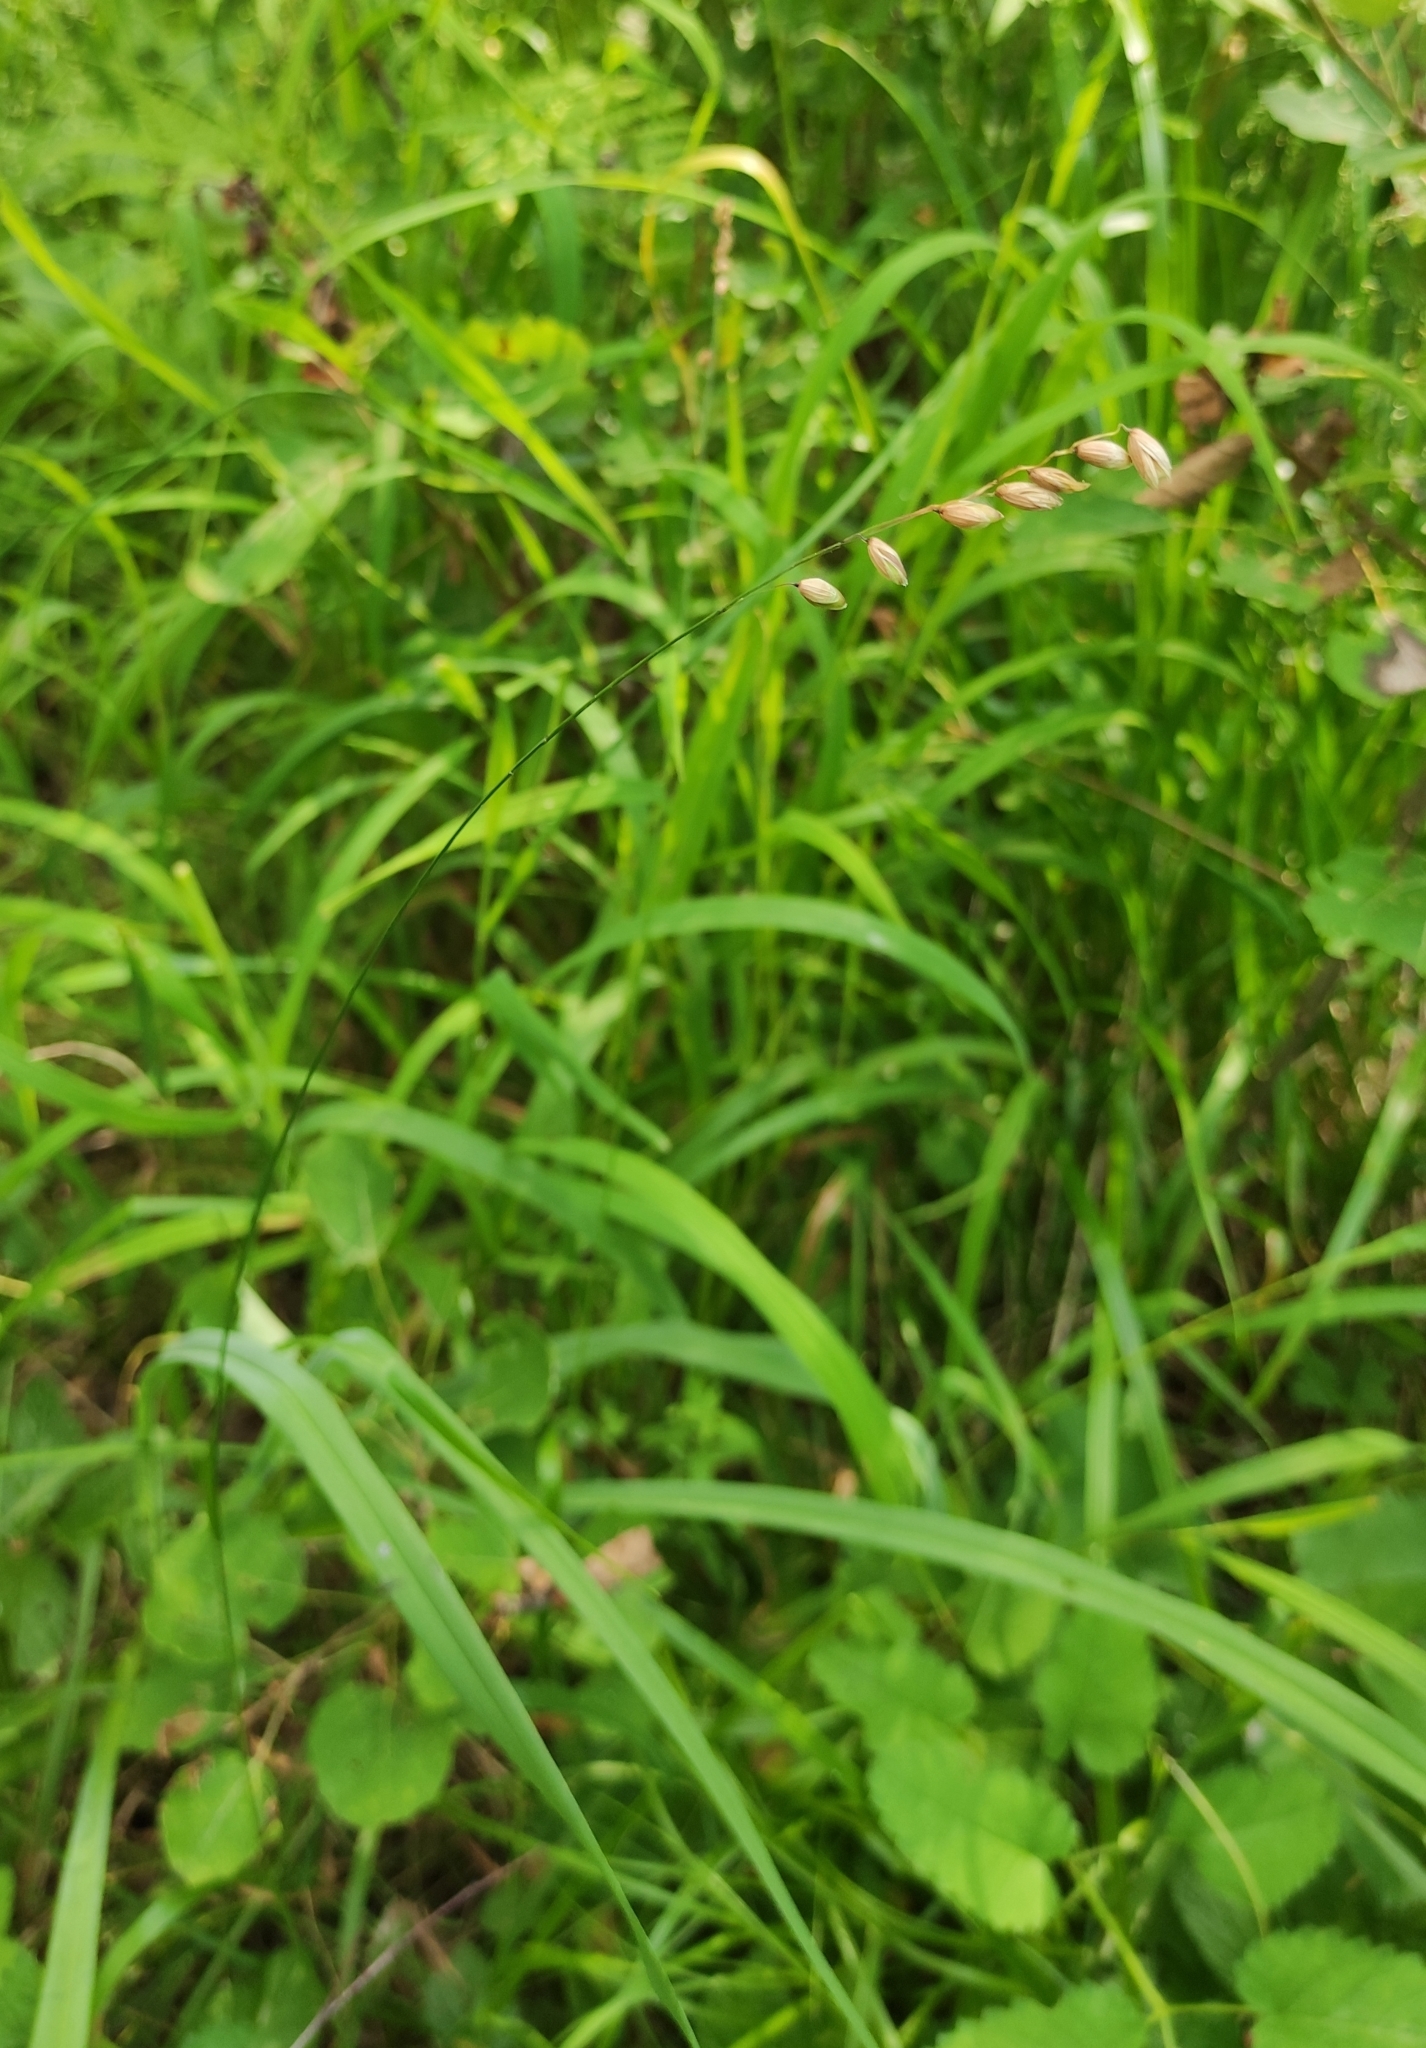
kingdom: Plantae
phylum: Tracheophyta
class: Liliopsida
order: Poales
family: Poaceae
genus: Melica
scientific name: Melica nutans
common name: Mountain melick
